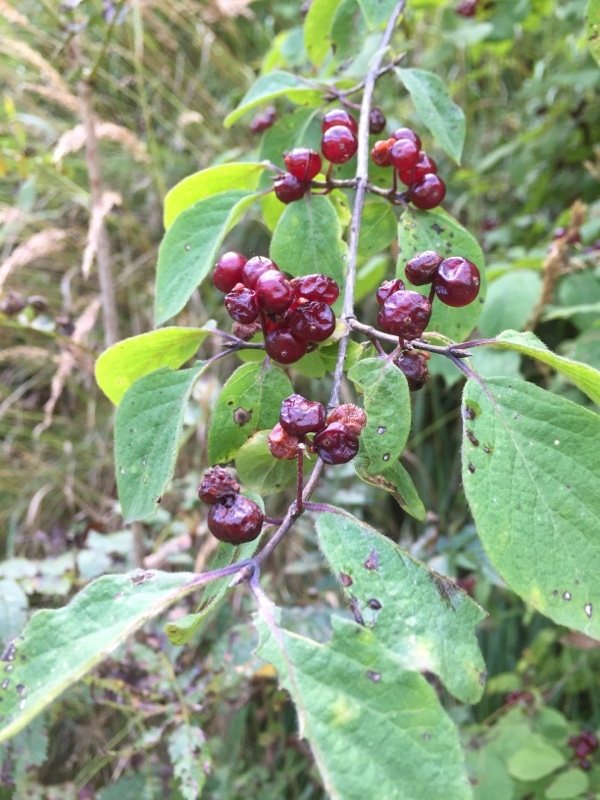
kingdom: Plantae
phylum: Tracheophyta
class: Magnoliopsida
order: Dipsacales
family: Caprifoliaceae
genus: Lonicera
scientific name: Lonicera xylosteum
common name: Fly honeysuckle
